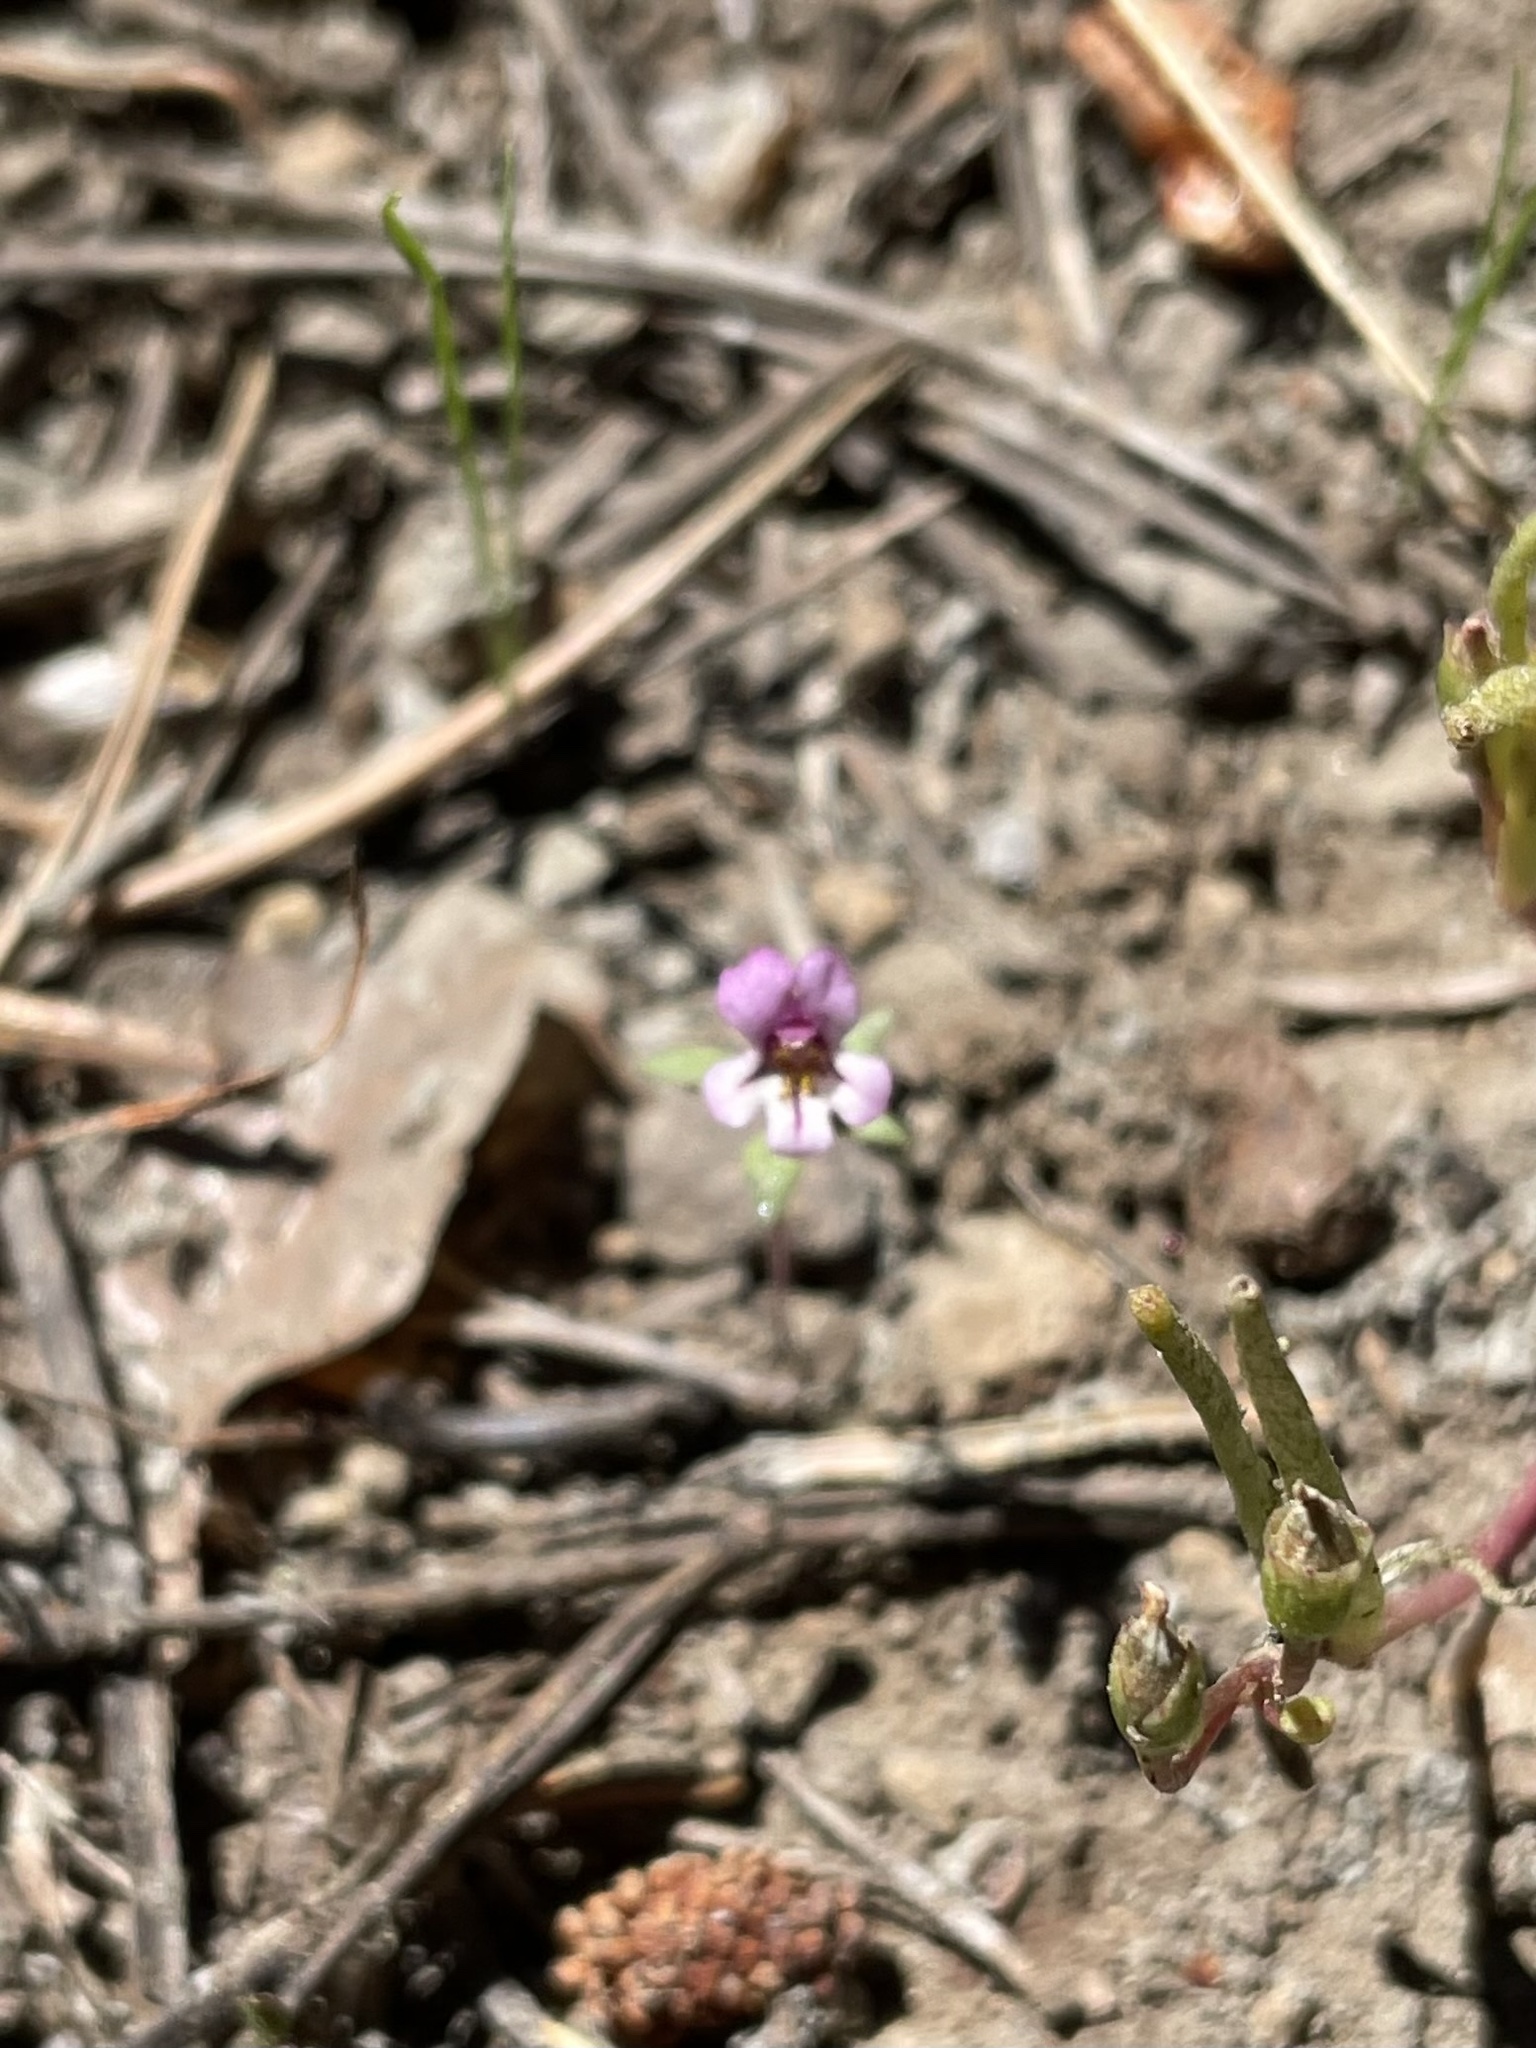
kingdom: Plantae
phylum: Tracheophyta
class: Magnoliopsida
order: Lamiales
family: Phrymaceae
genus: Diplacus
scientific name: Diplacus jepsonii
